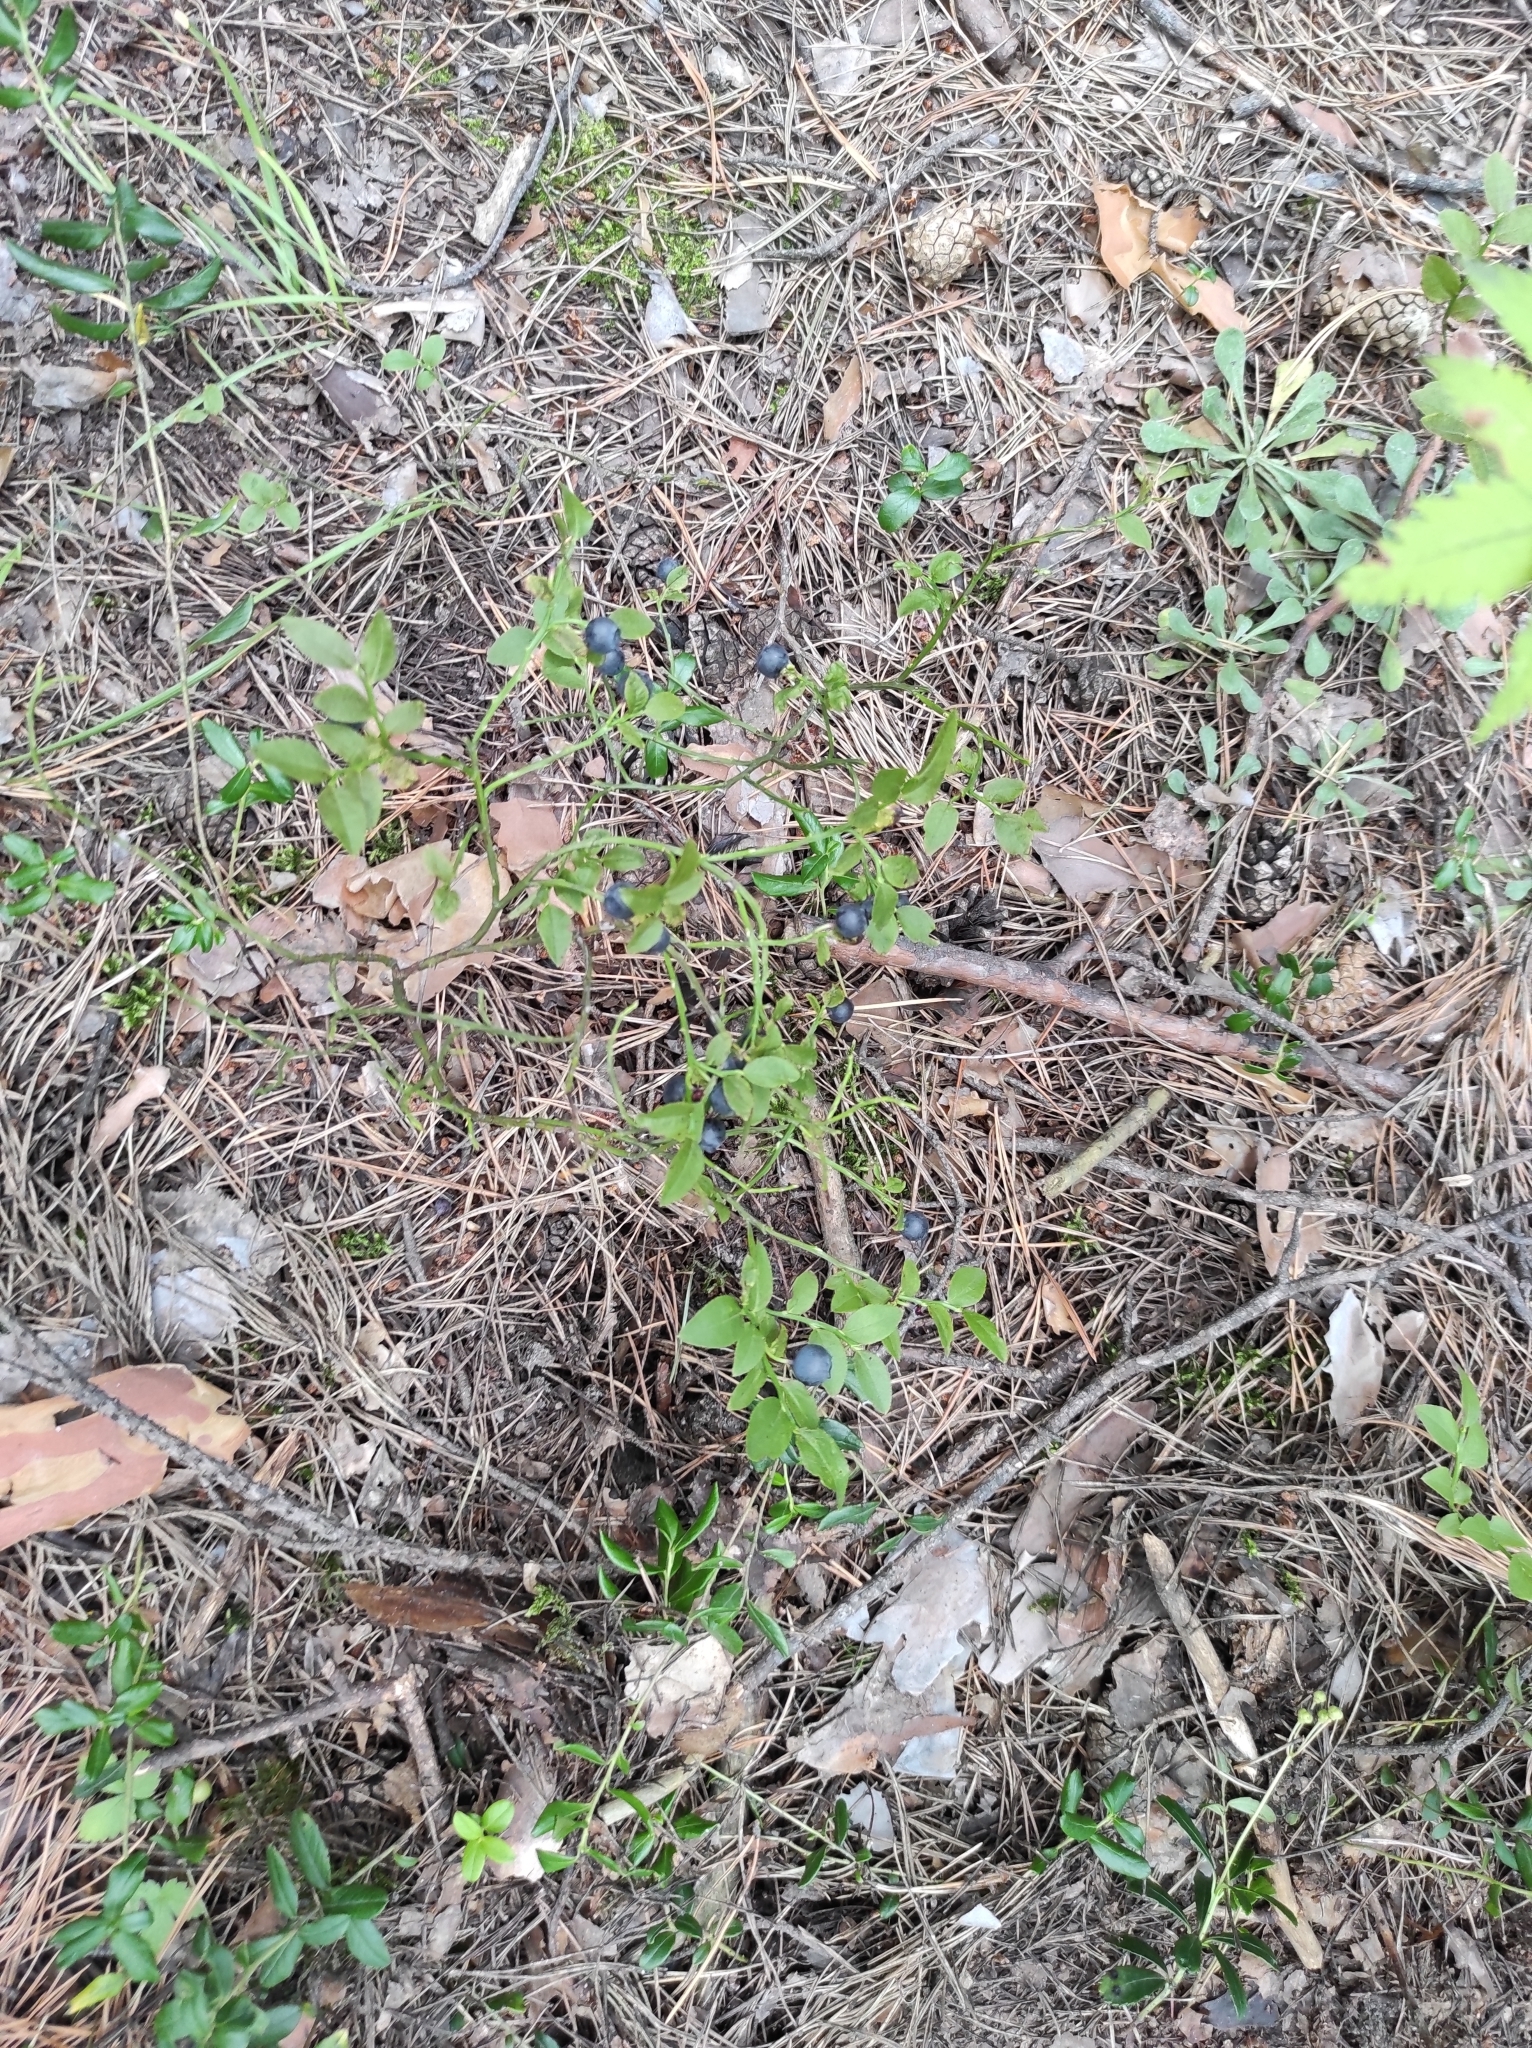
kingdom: Plantae
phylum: Tracheophyta
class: Magnoliopsida
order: Ericales
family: Ericaceae
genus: Vaccinium
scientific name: Vaccinium myrtillus
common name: Bilberry
